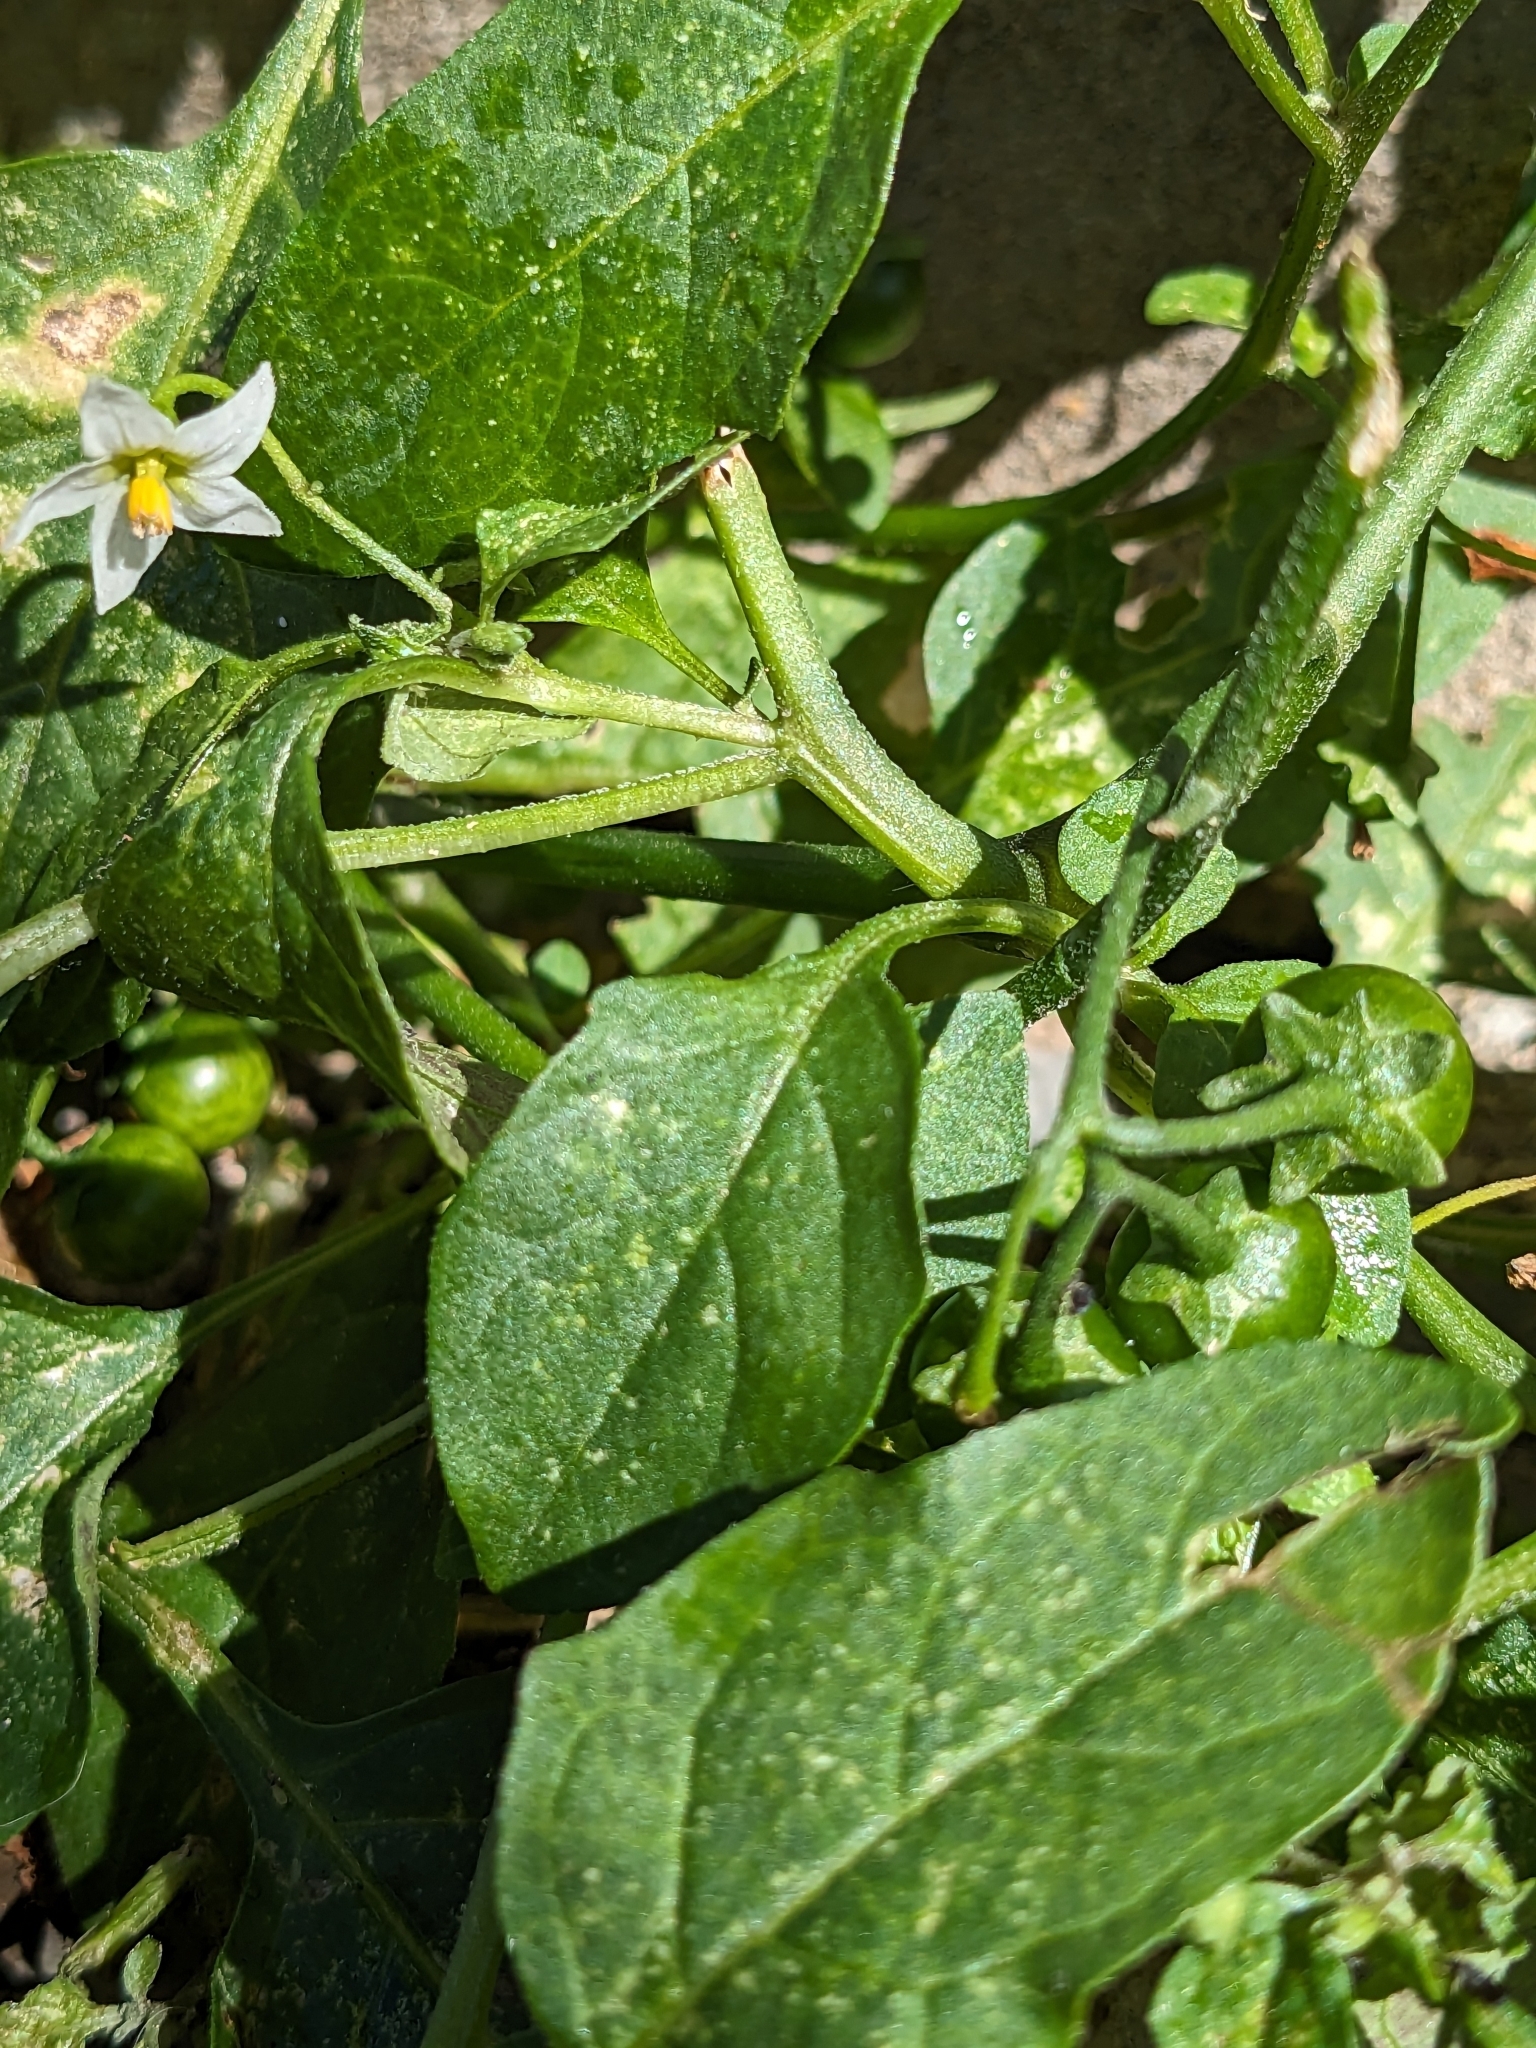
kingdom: Plantae
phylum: Tracheophyta
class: Magnoliopsida
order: Solanales
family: Solanaceae
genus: Solanum
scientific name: Solanum emulans
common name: Eastern black nightshade
